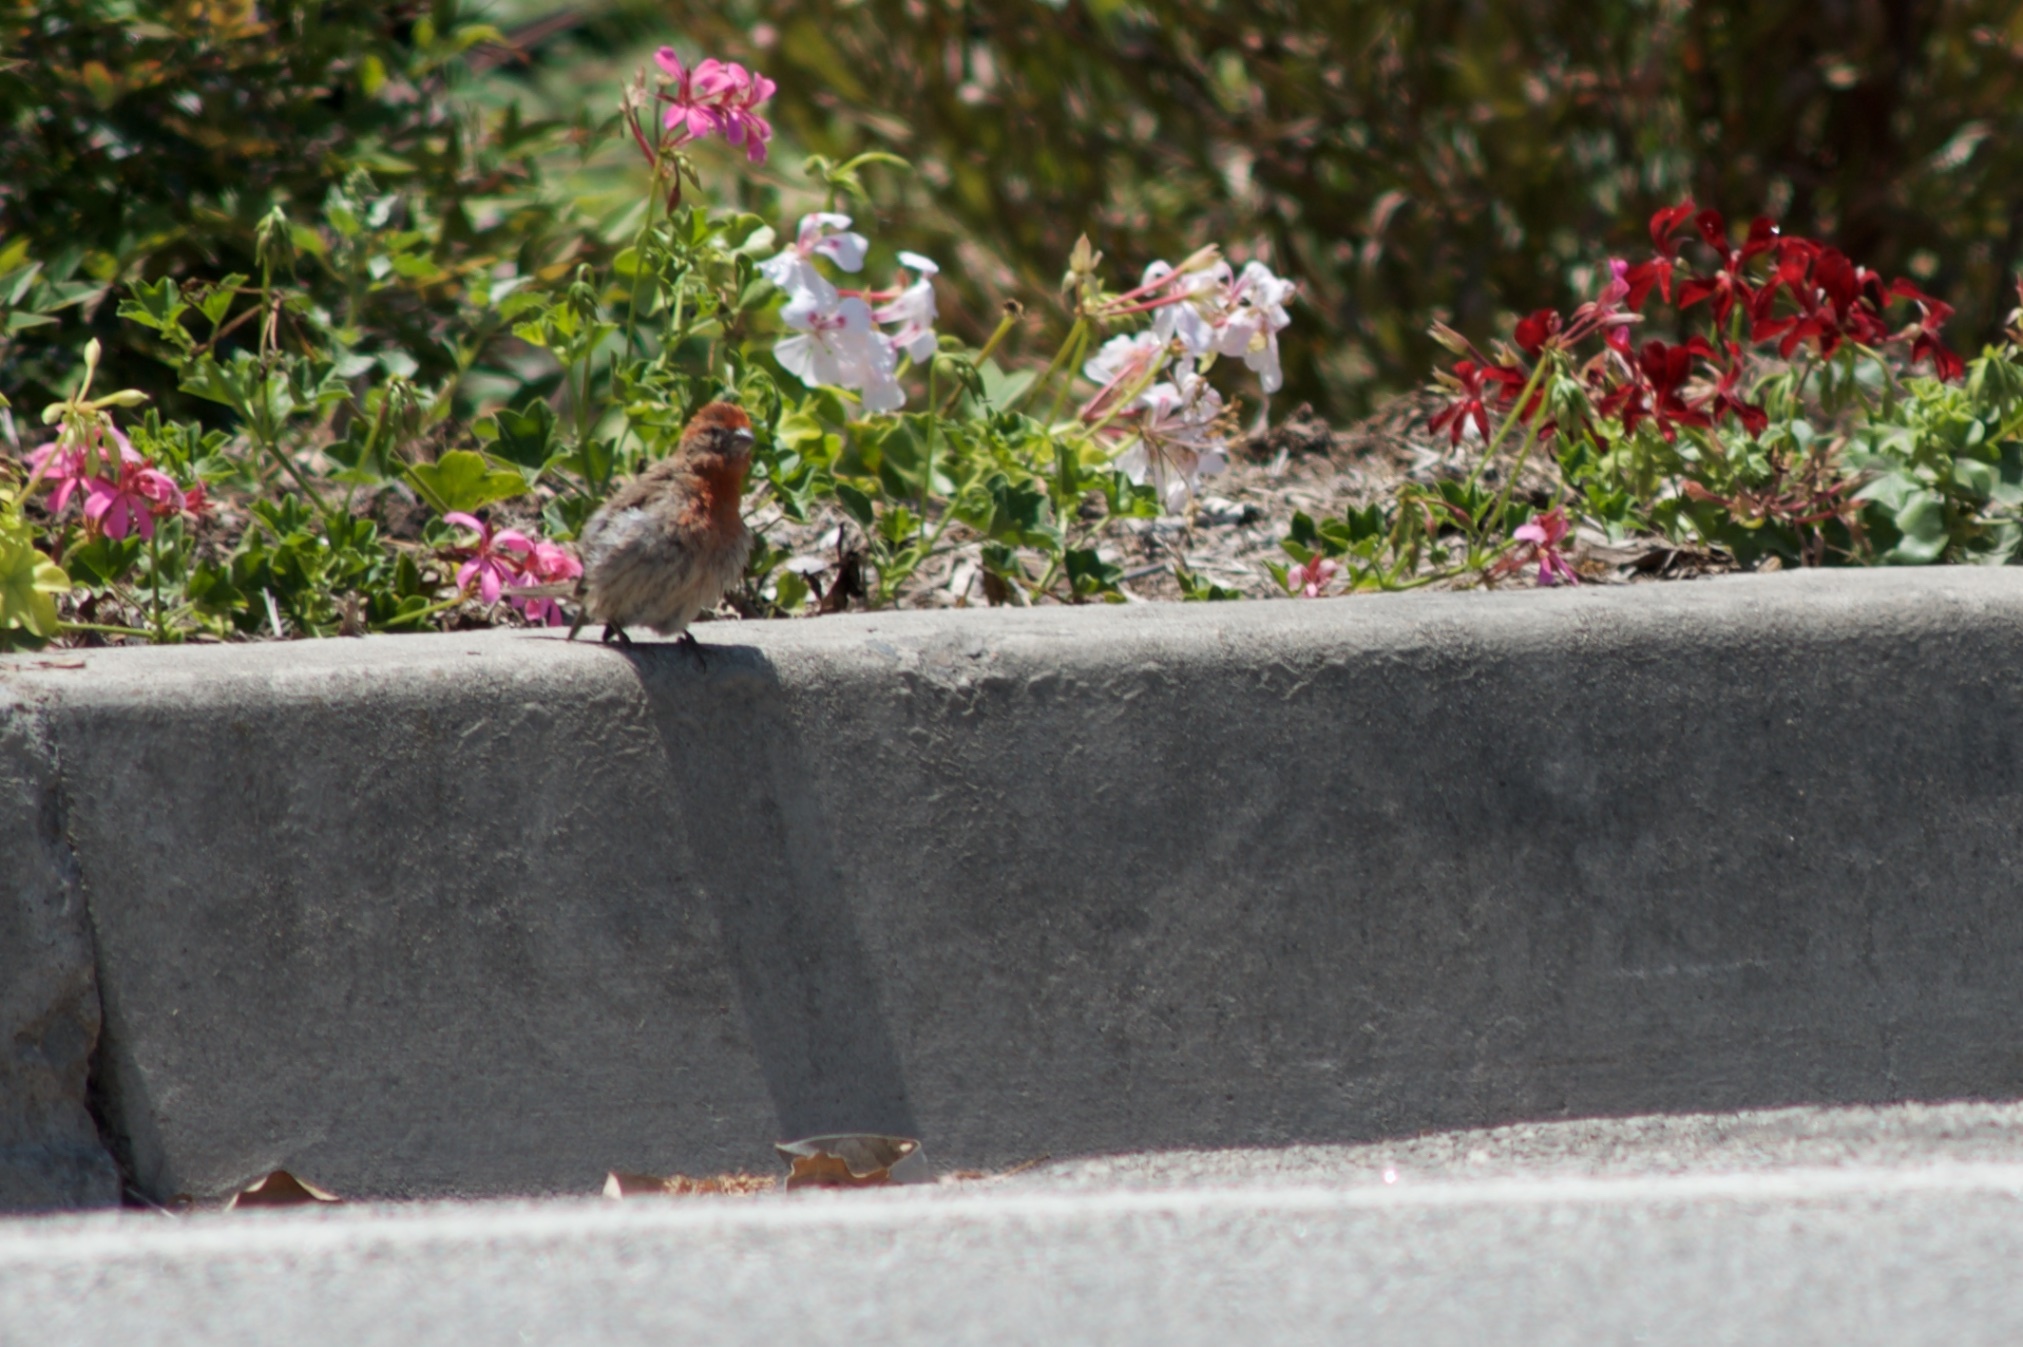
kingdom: Animalia
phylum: Chordata
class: Aves
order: Passeriformes
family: Fringillidae
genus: Haemorhous
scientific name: Haemorhous mexicanus
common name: House finch
